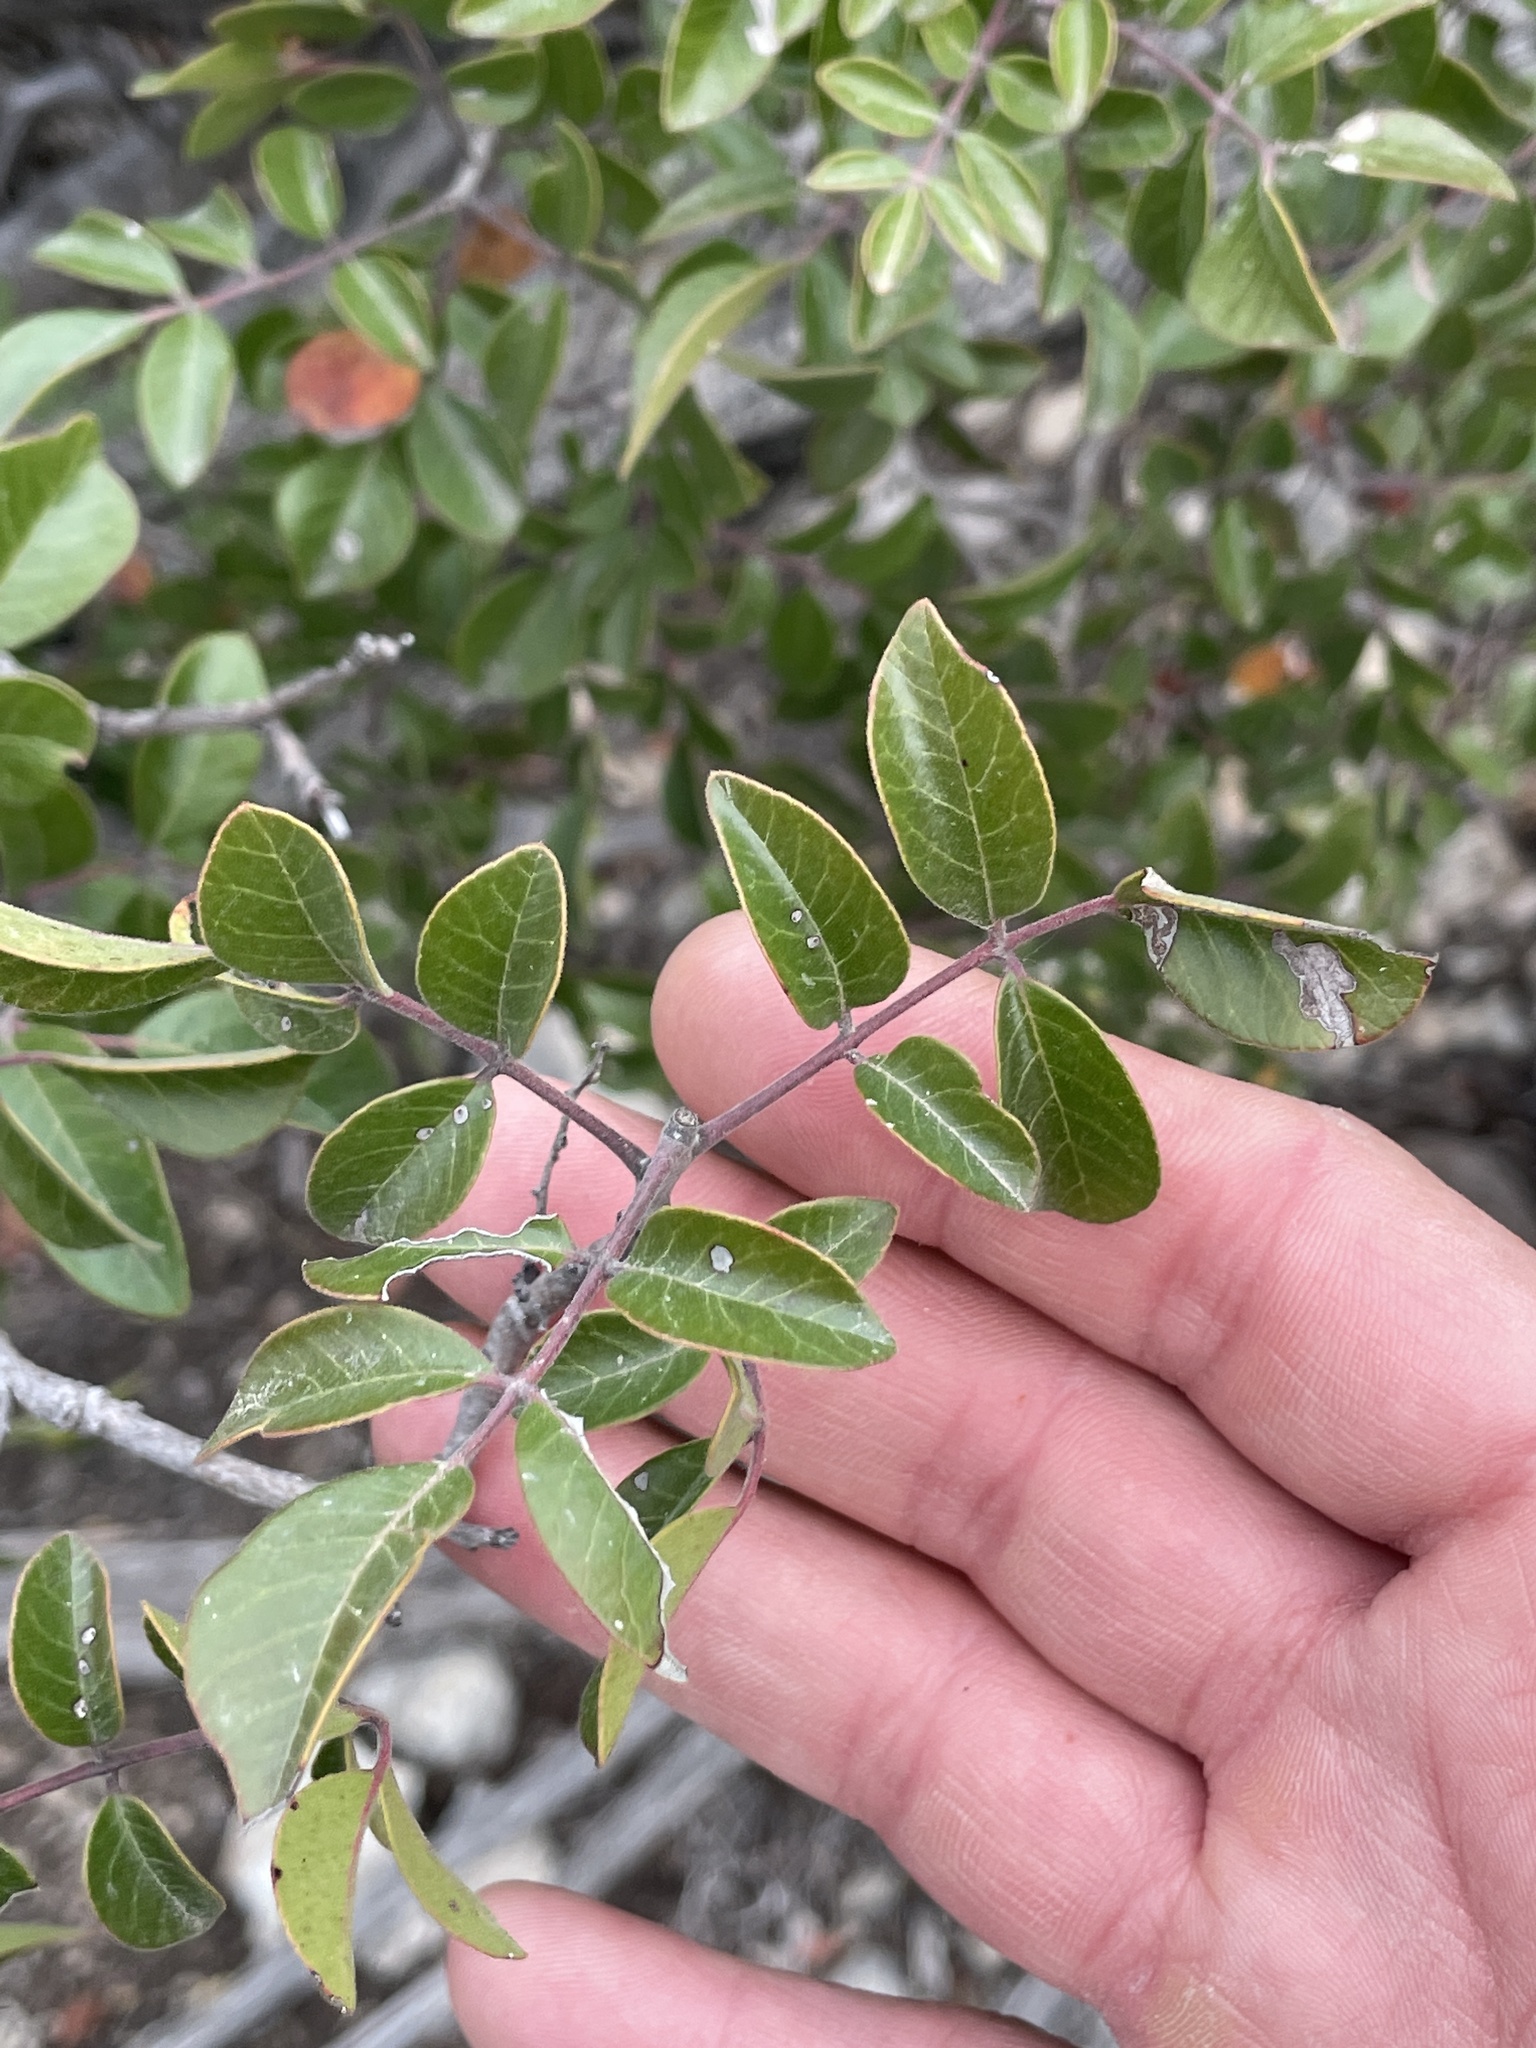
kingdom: Plantae
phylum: Tracheophyta
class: Magnoliopsida
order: Sapindales
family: Anacardiaceae
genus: Rhus
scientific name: Rhus virens
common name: Evergreen sumac
